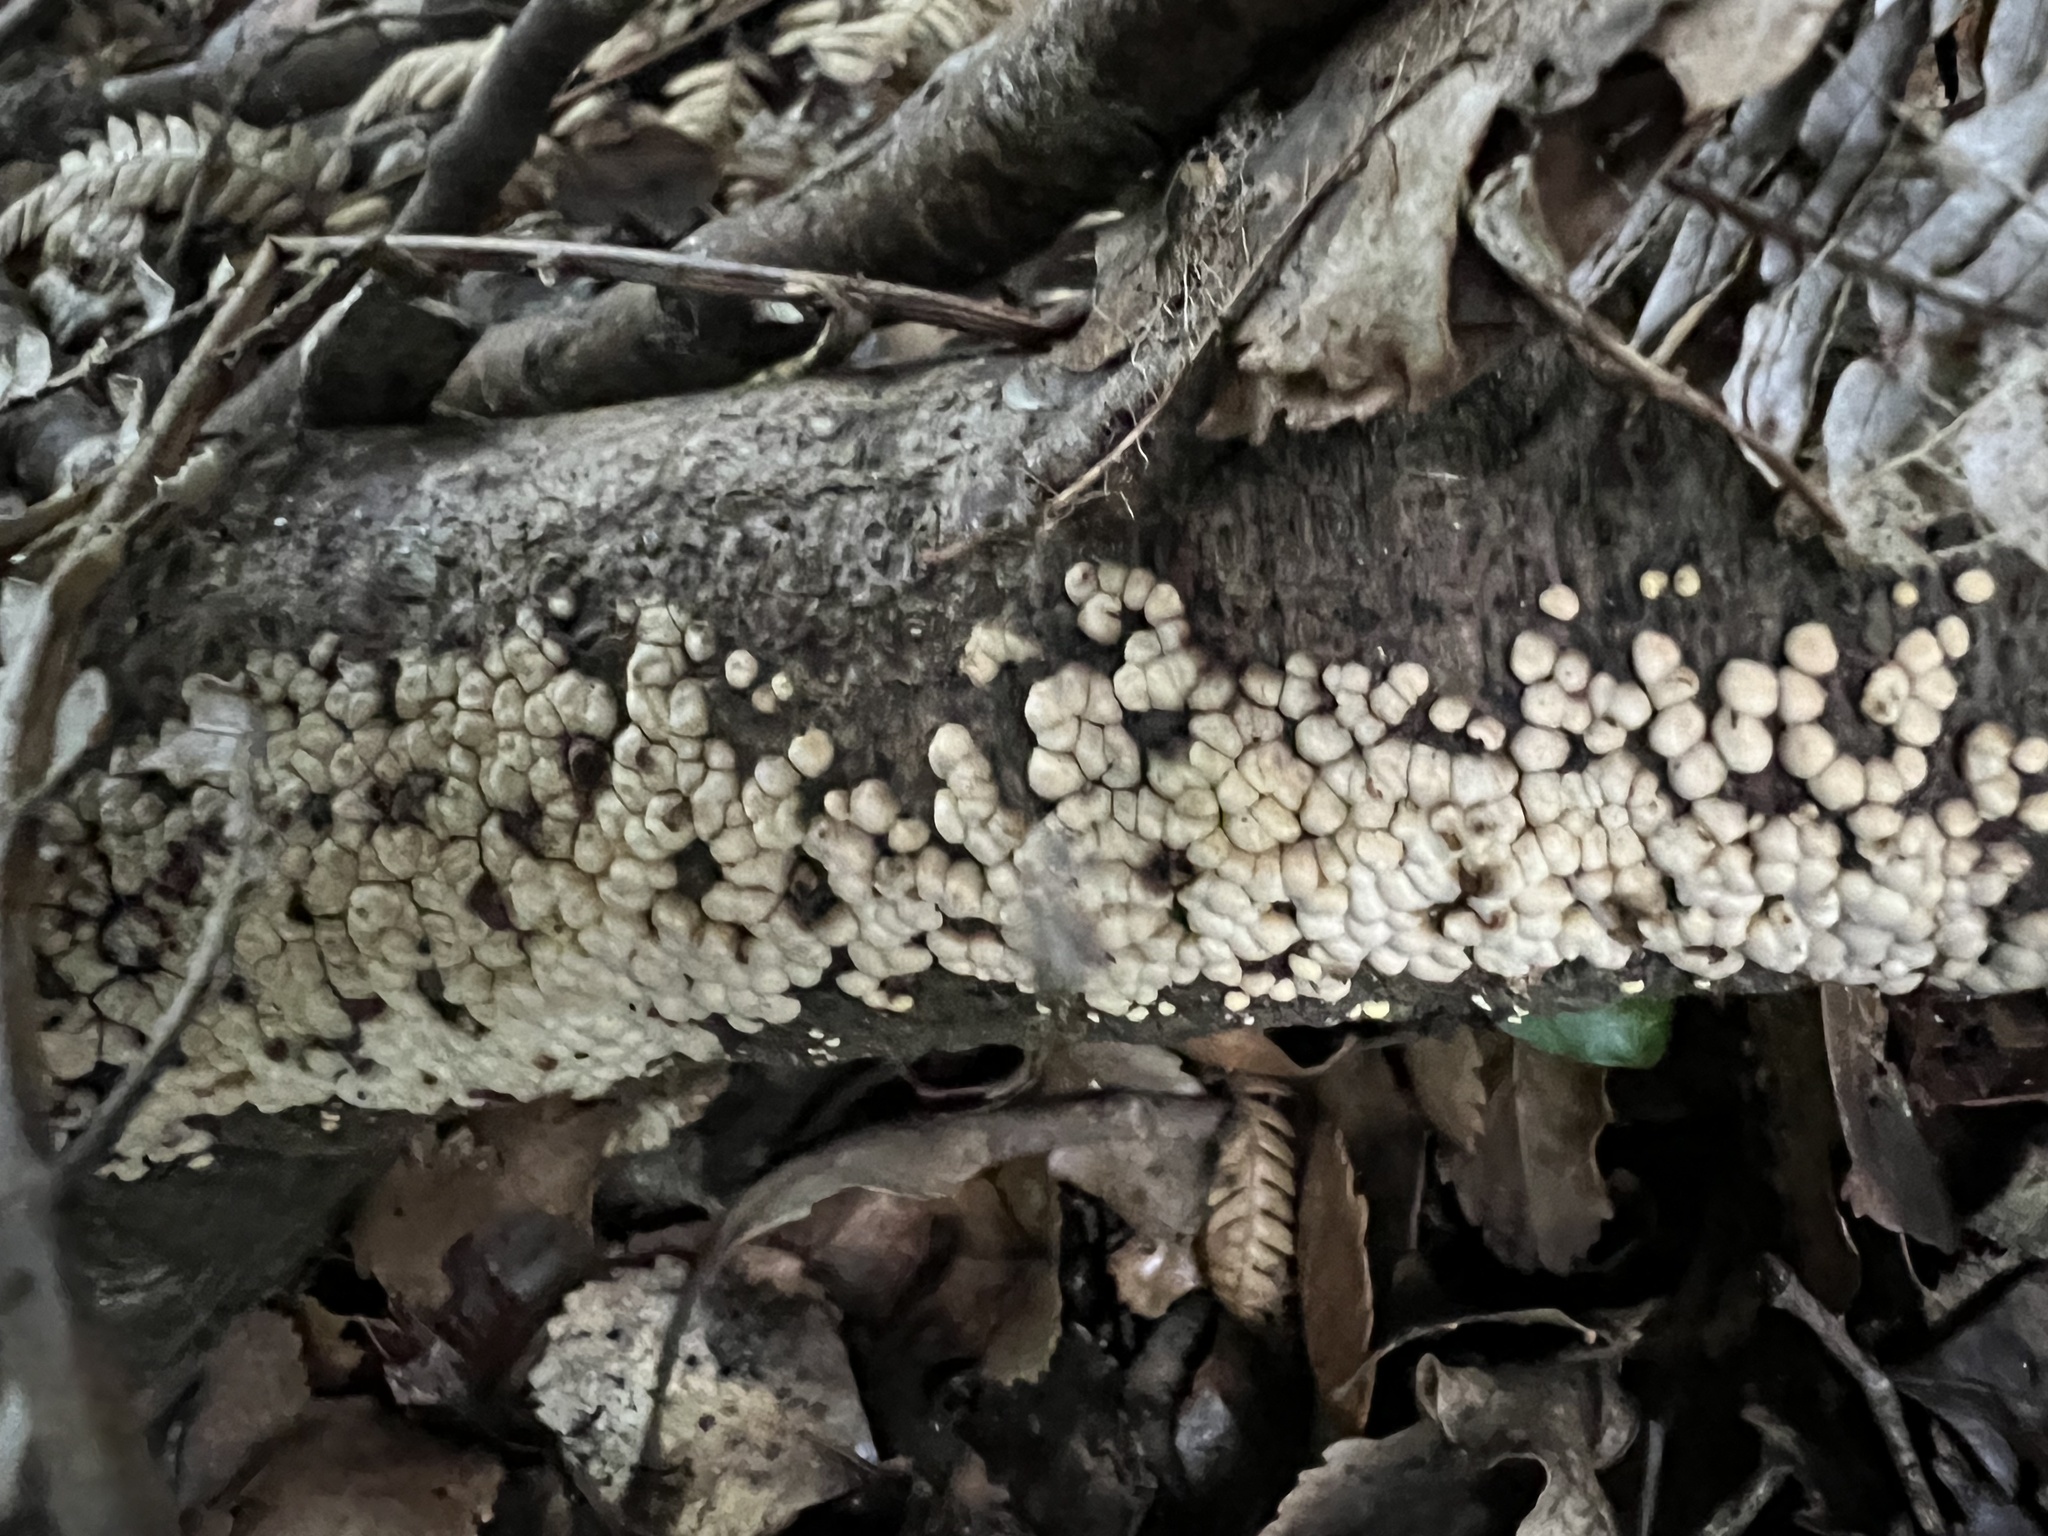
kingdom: Fungi
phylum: Basidiomycota
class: Agaricomycetes
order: Russulales
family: Stereaceae
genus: Aleurodiscus
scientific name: Aleurodiscus berggrenii
